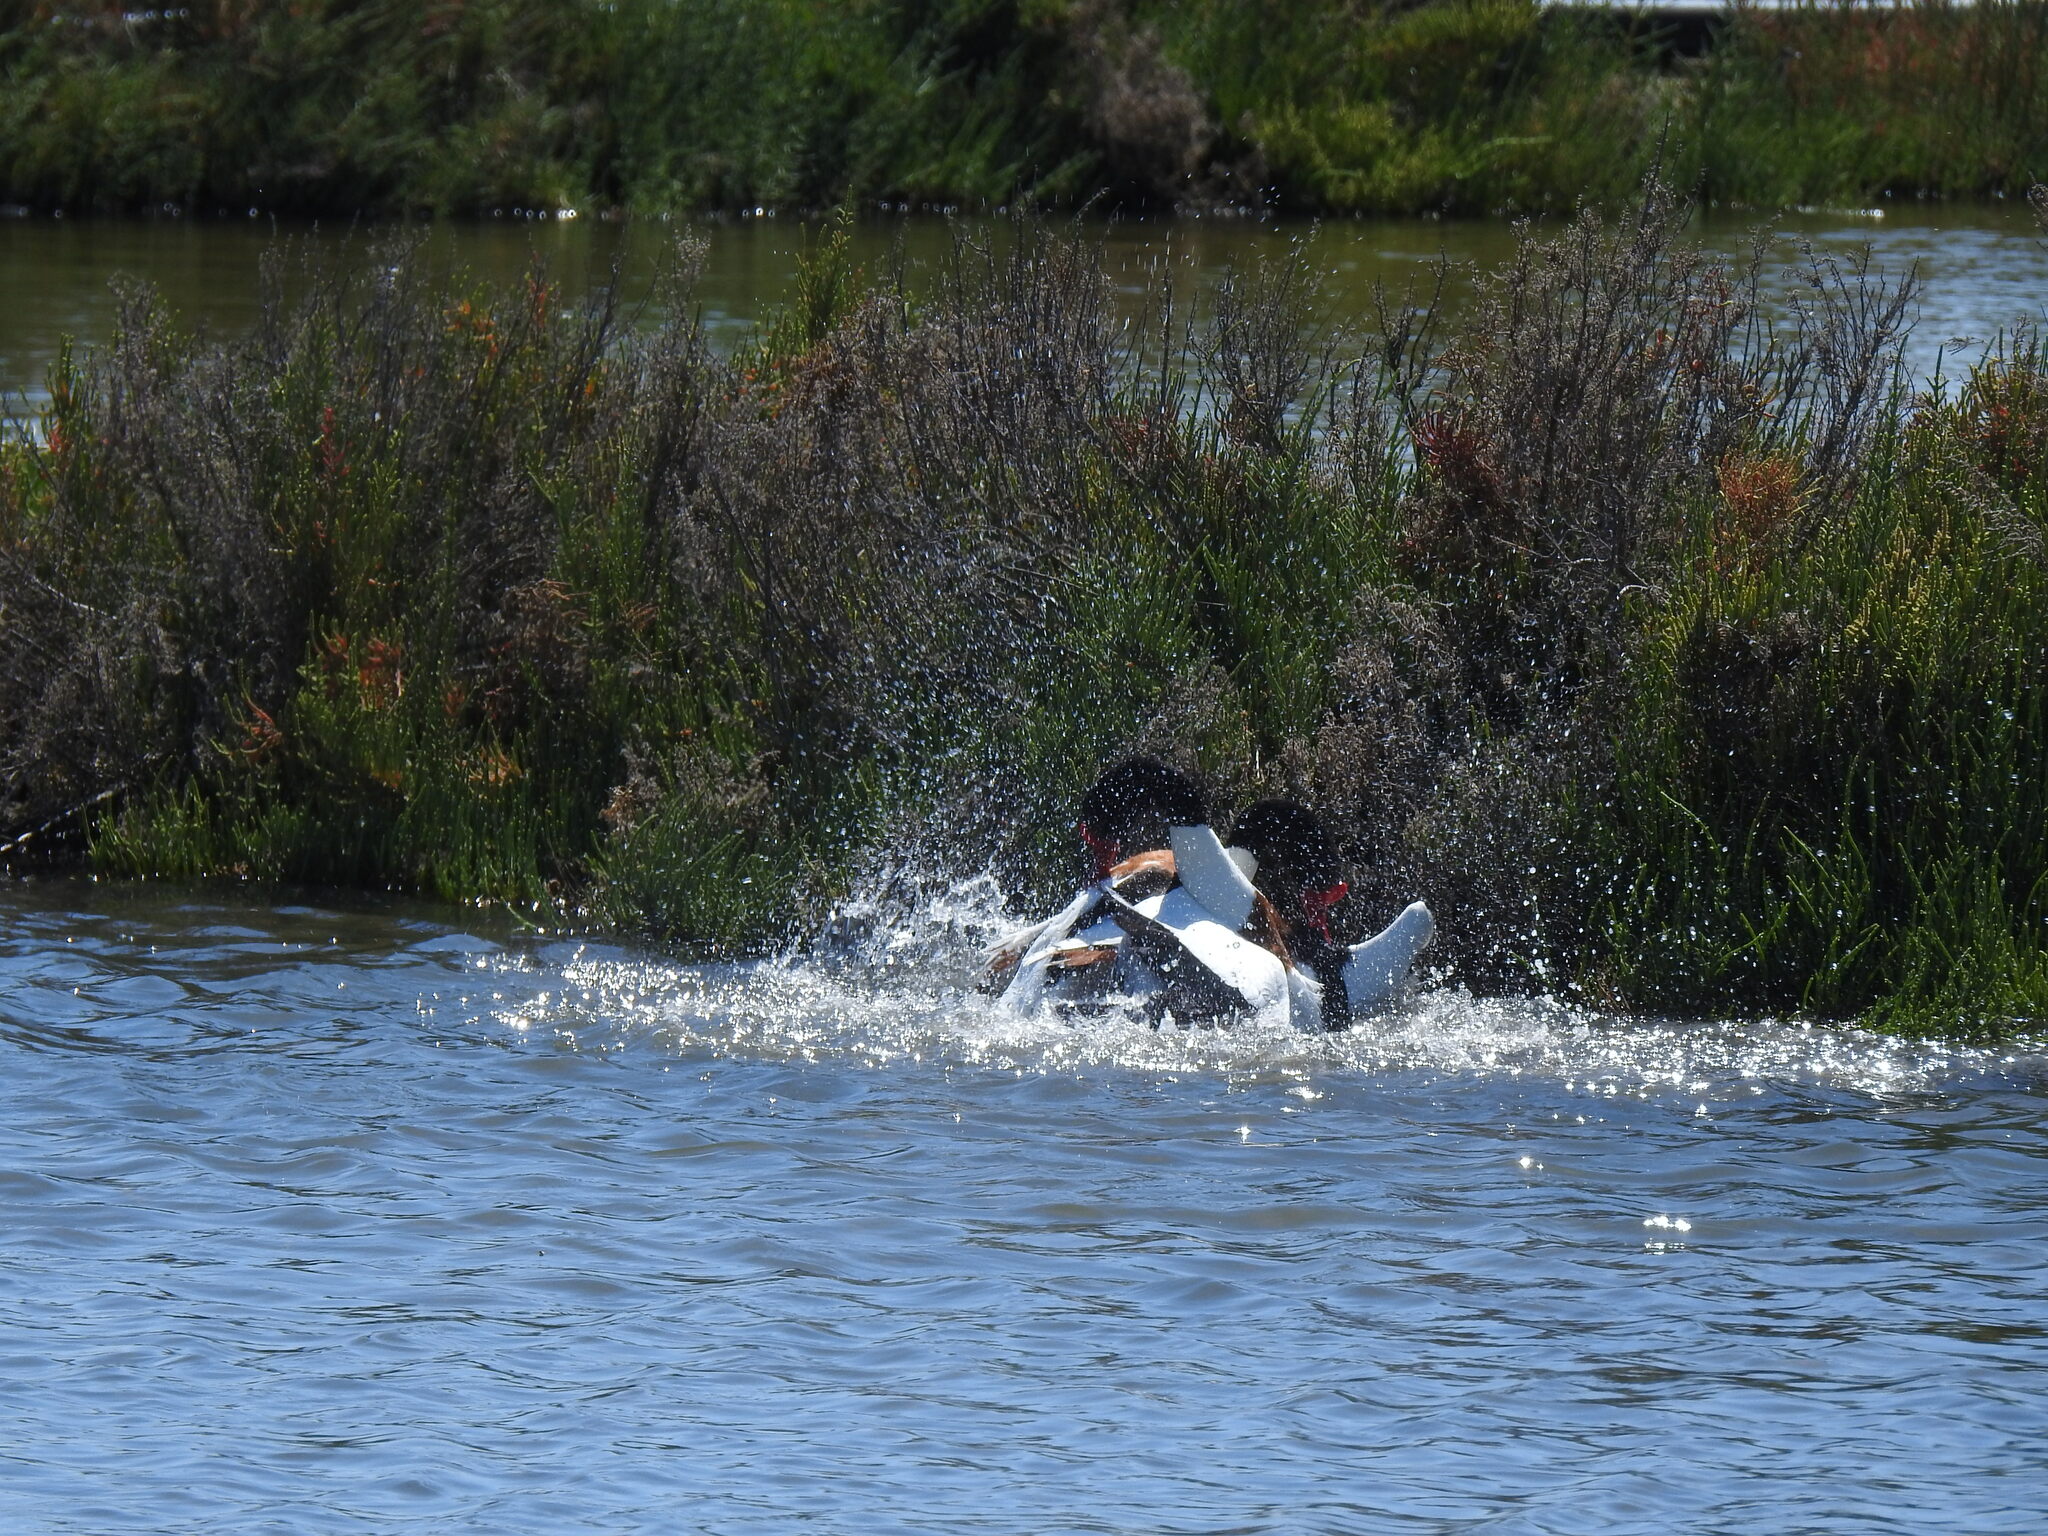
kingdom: Animalia
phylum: Chordata
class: Aves
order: Anseriformes
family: Anatidae
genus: Tadorna
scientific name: Tadorna tadorna
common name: Common shelduck
